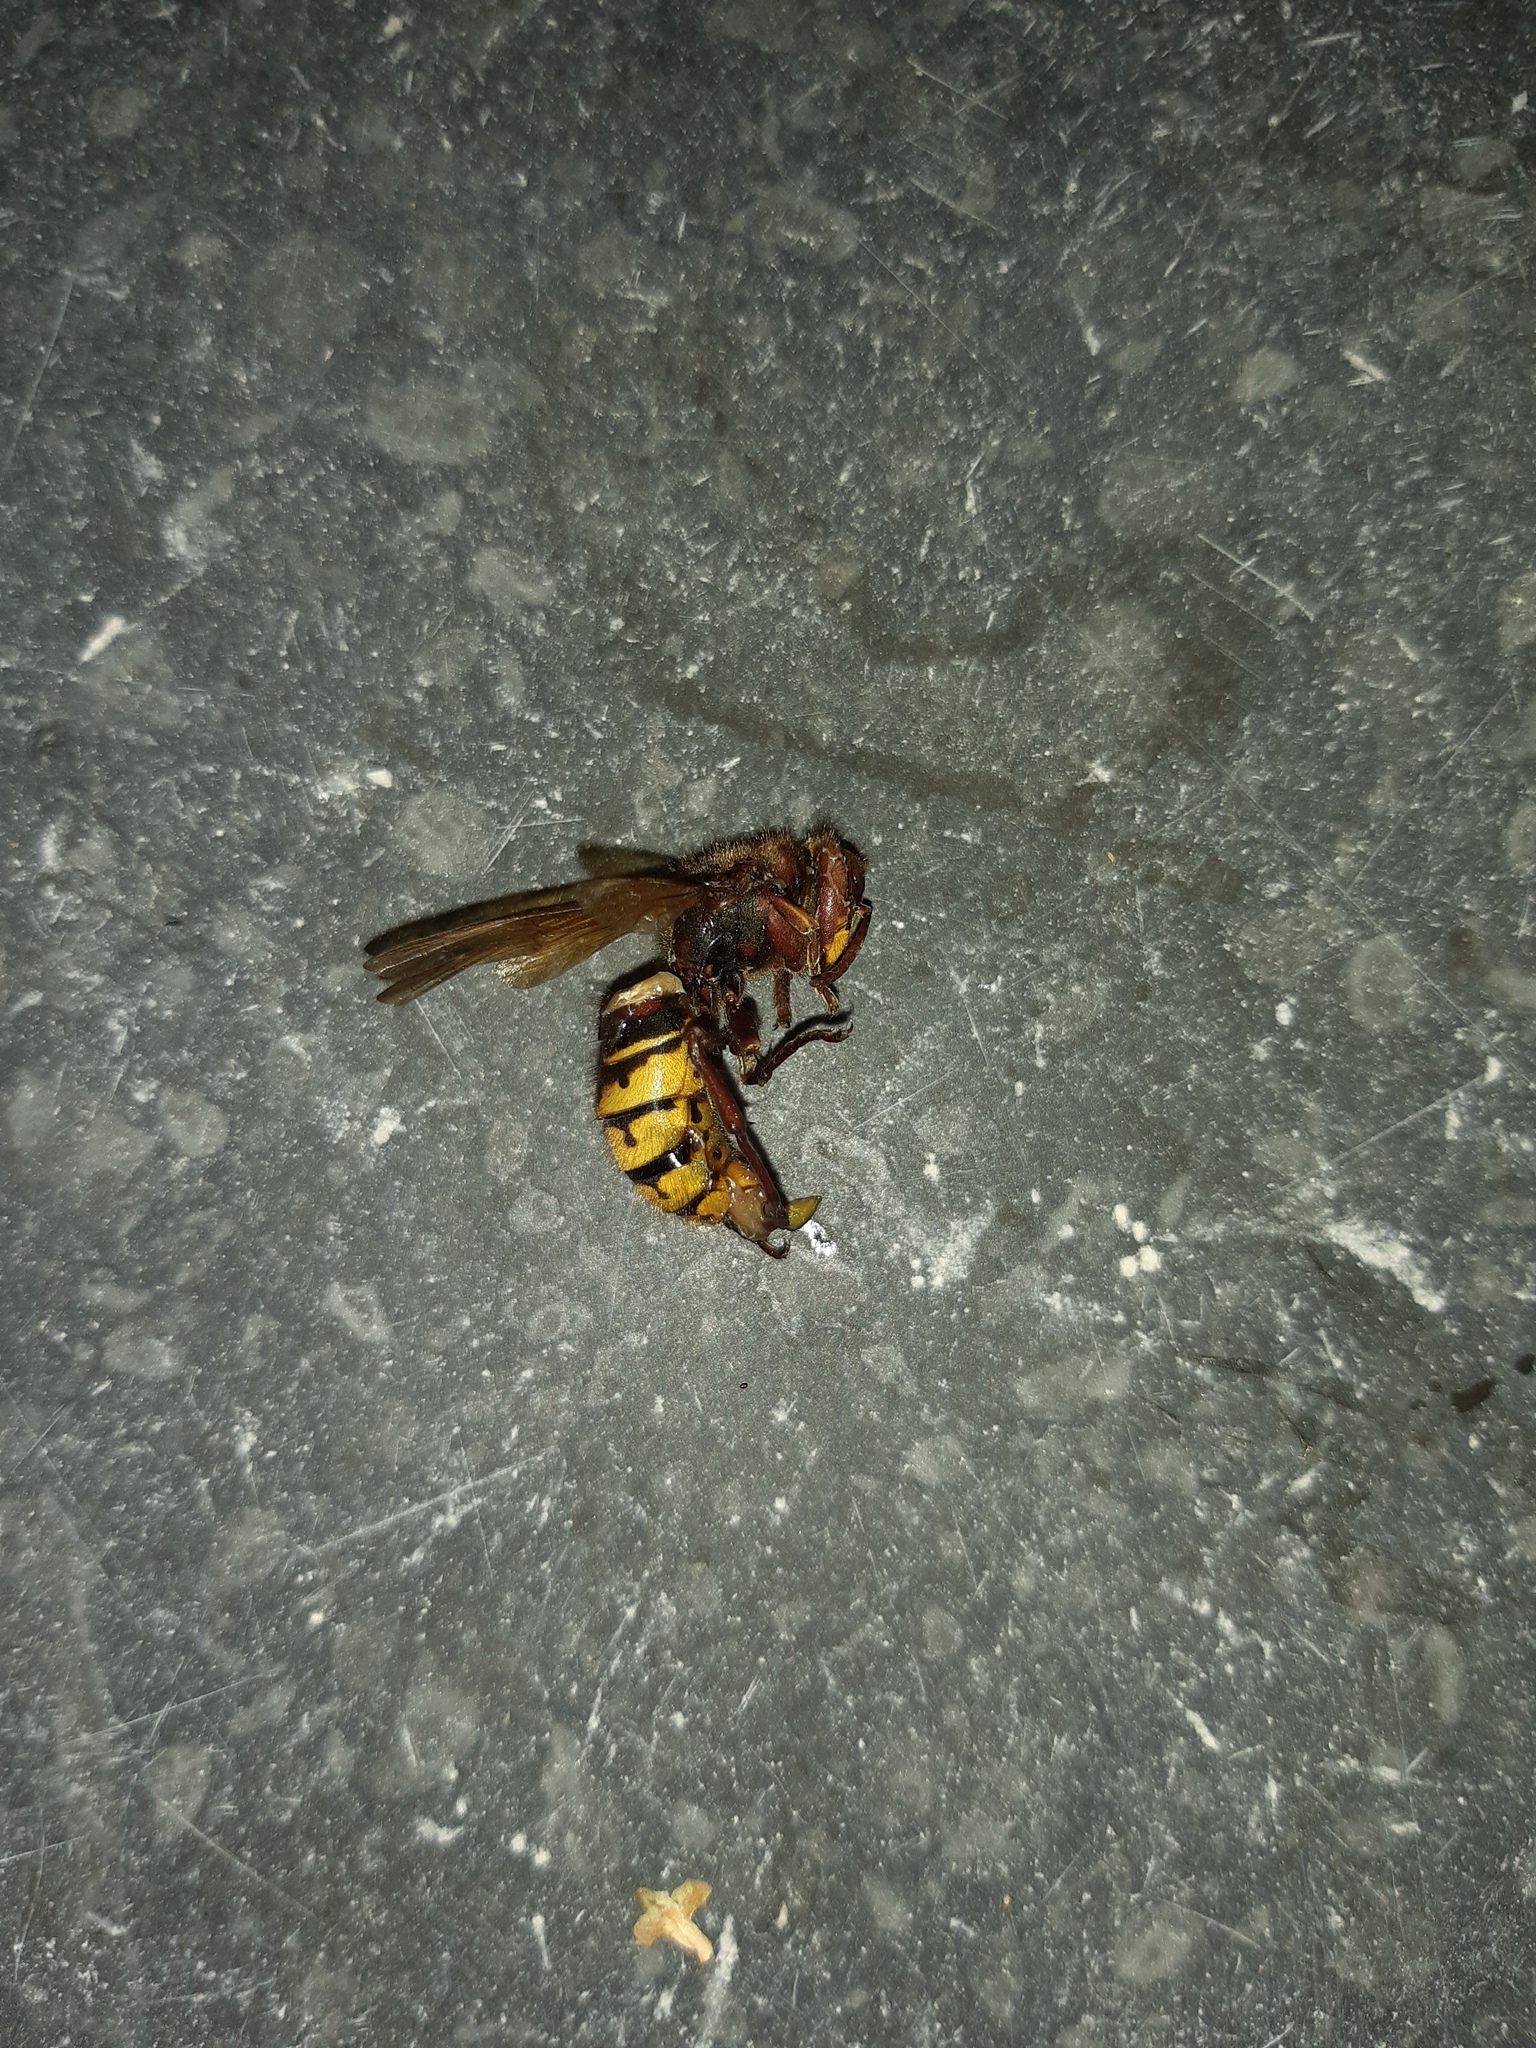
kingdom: Animalia
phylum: Arthropoda
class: Insecta
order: Hymenoptera
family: Vespidae
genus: Vespa
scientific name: Vespa crabro
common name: Hornet
